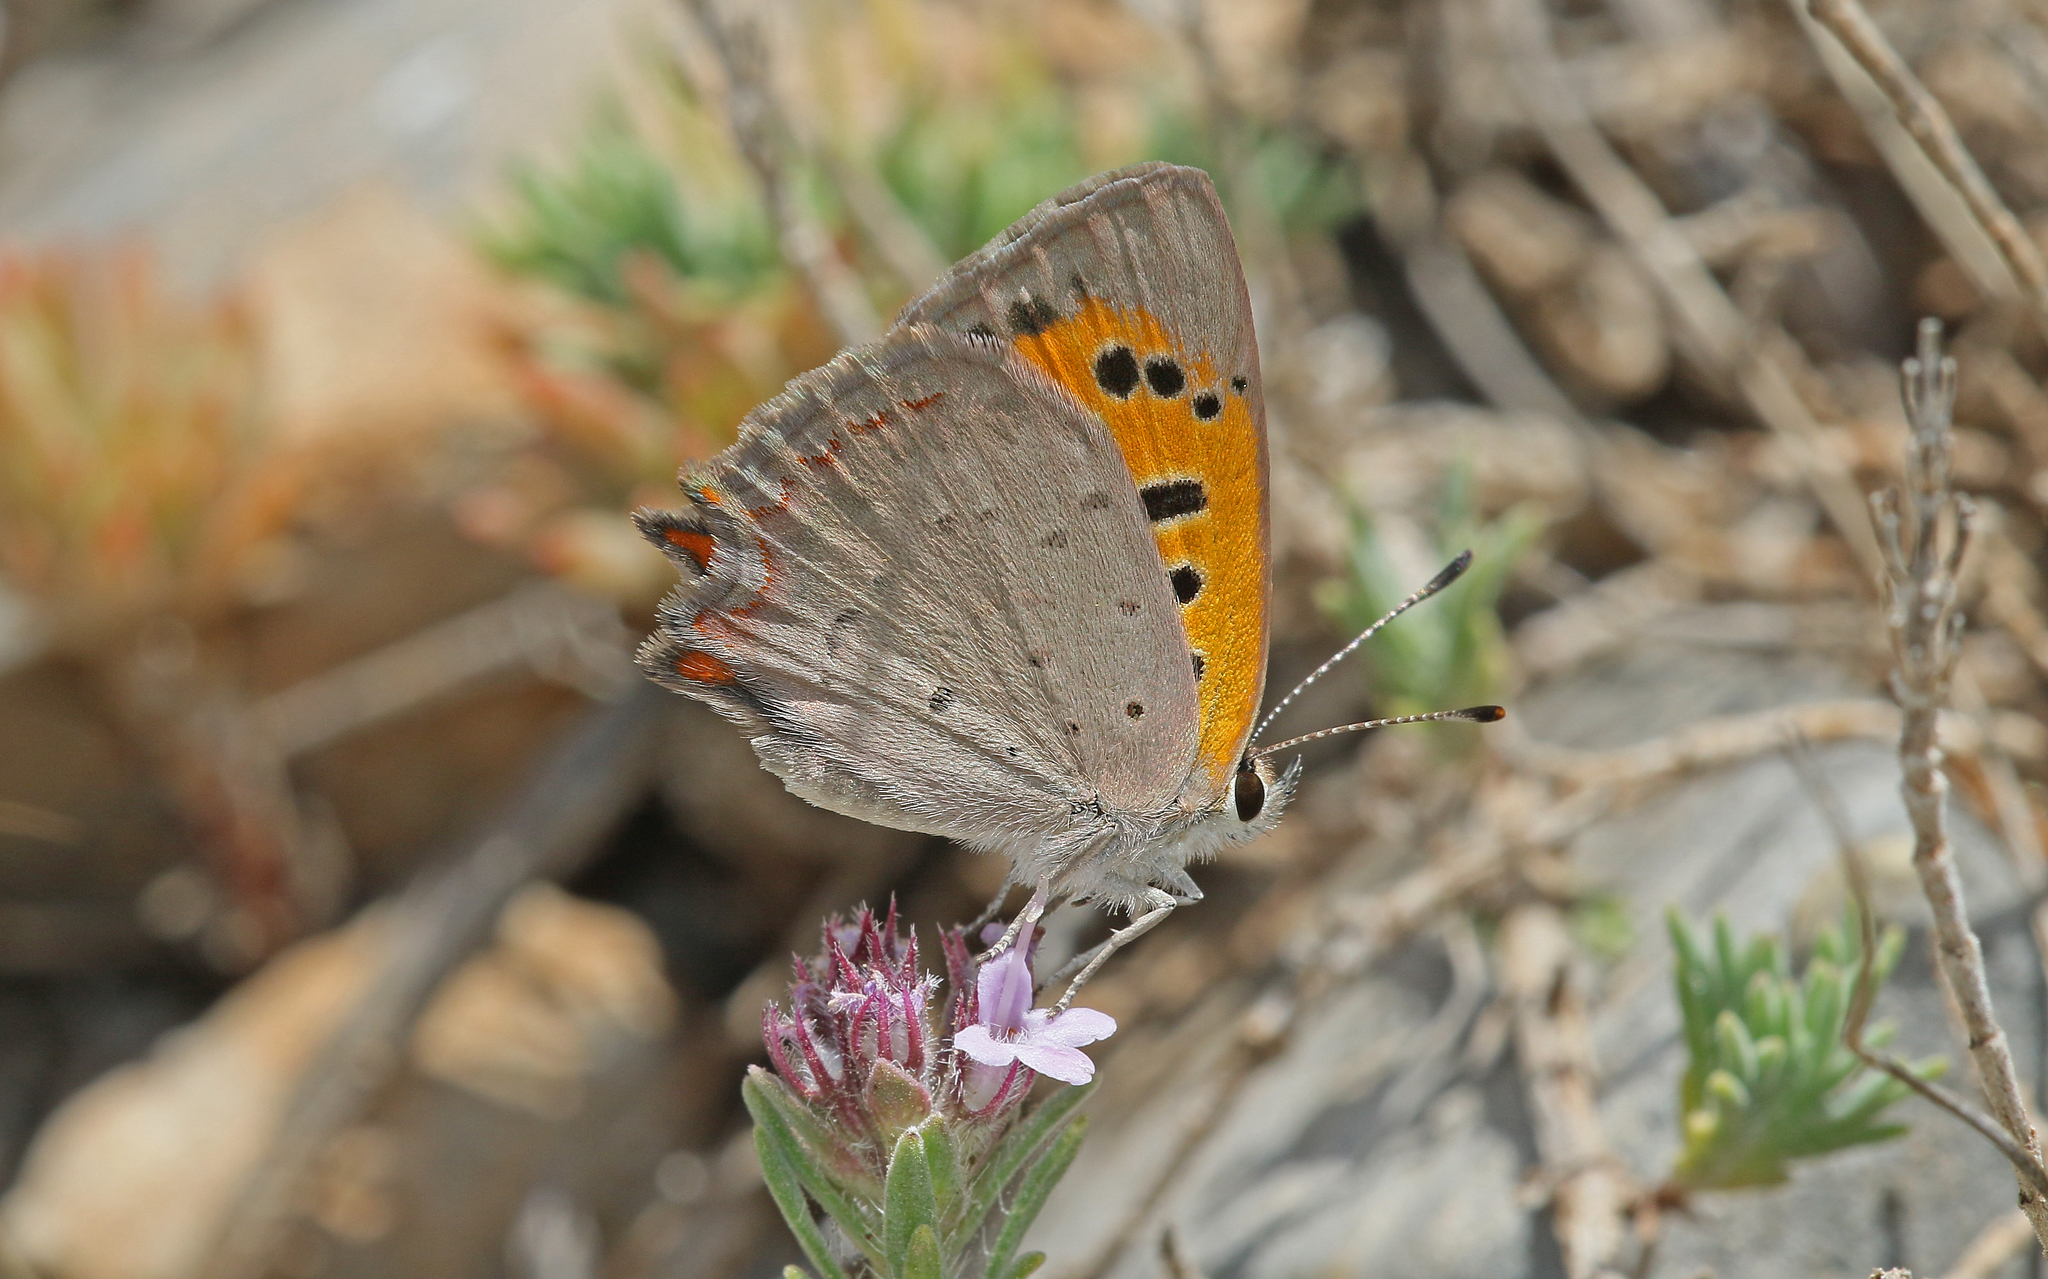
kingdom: Animalia
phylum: Arthropoda
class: Insecta
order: Lepidoptera
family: Lycaenidae
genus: Lycaena
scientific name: Lycaena phlaeas
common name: Small copper
